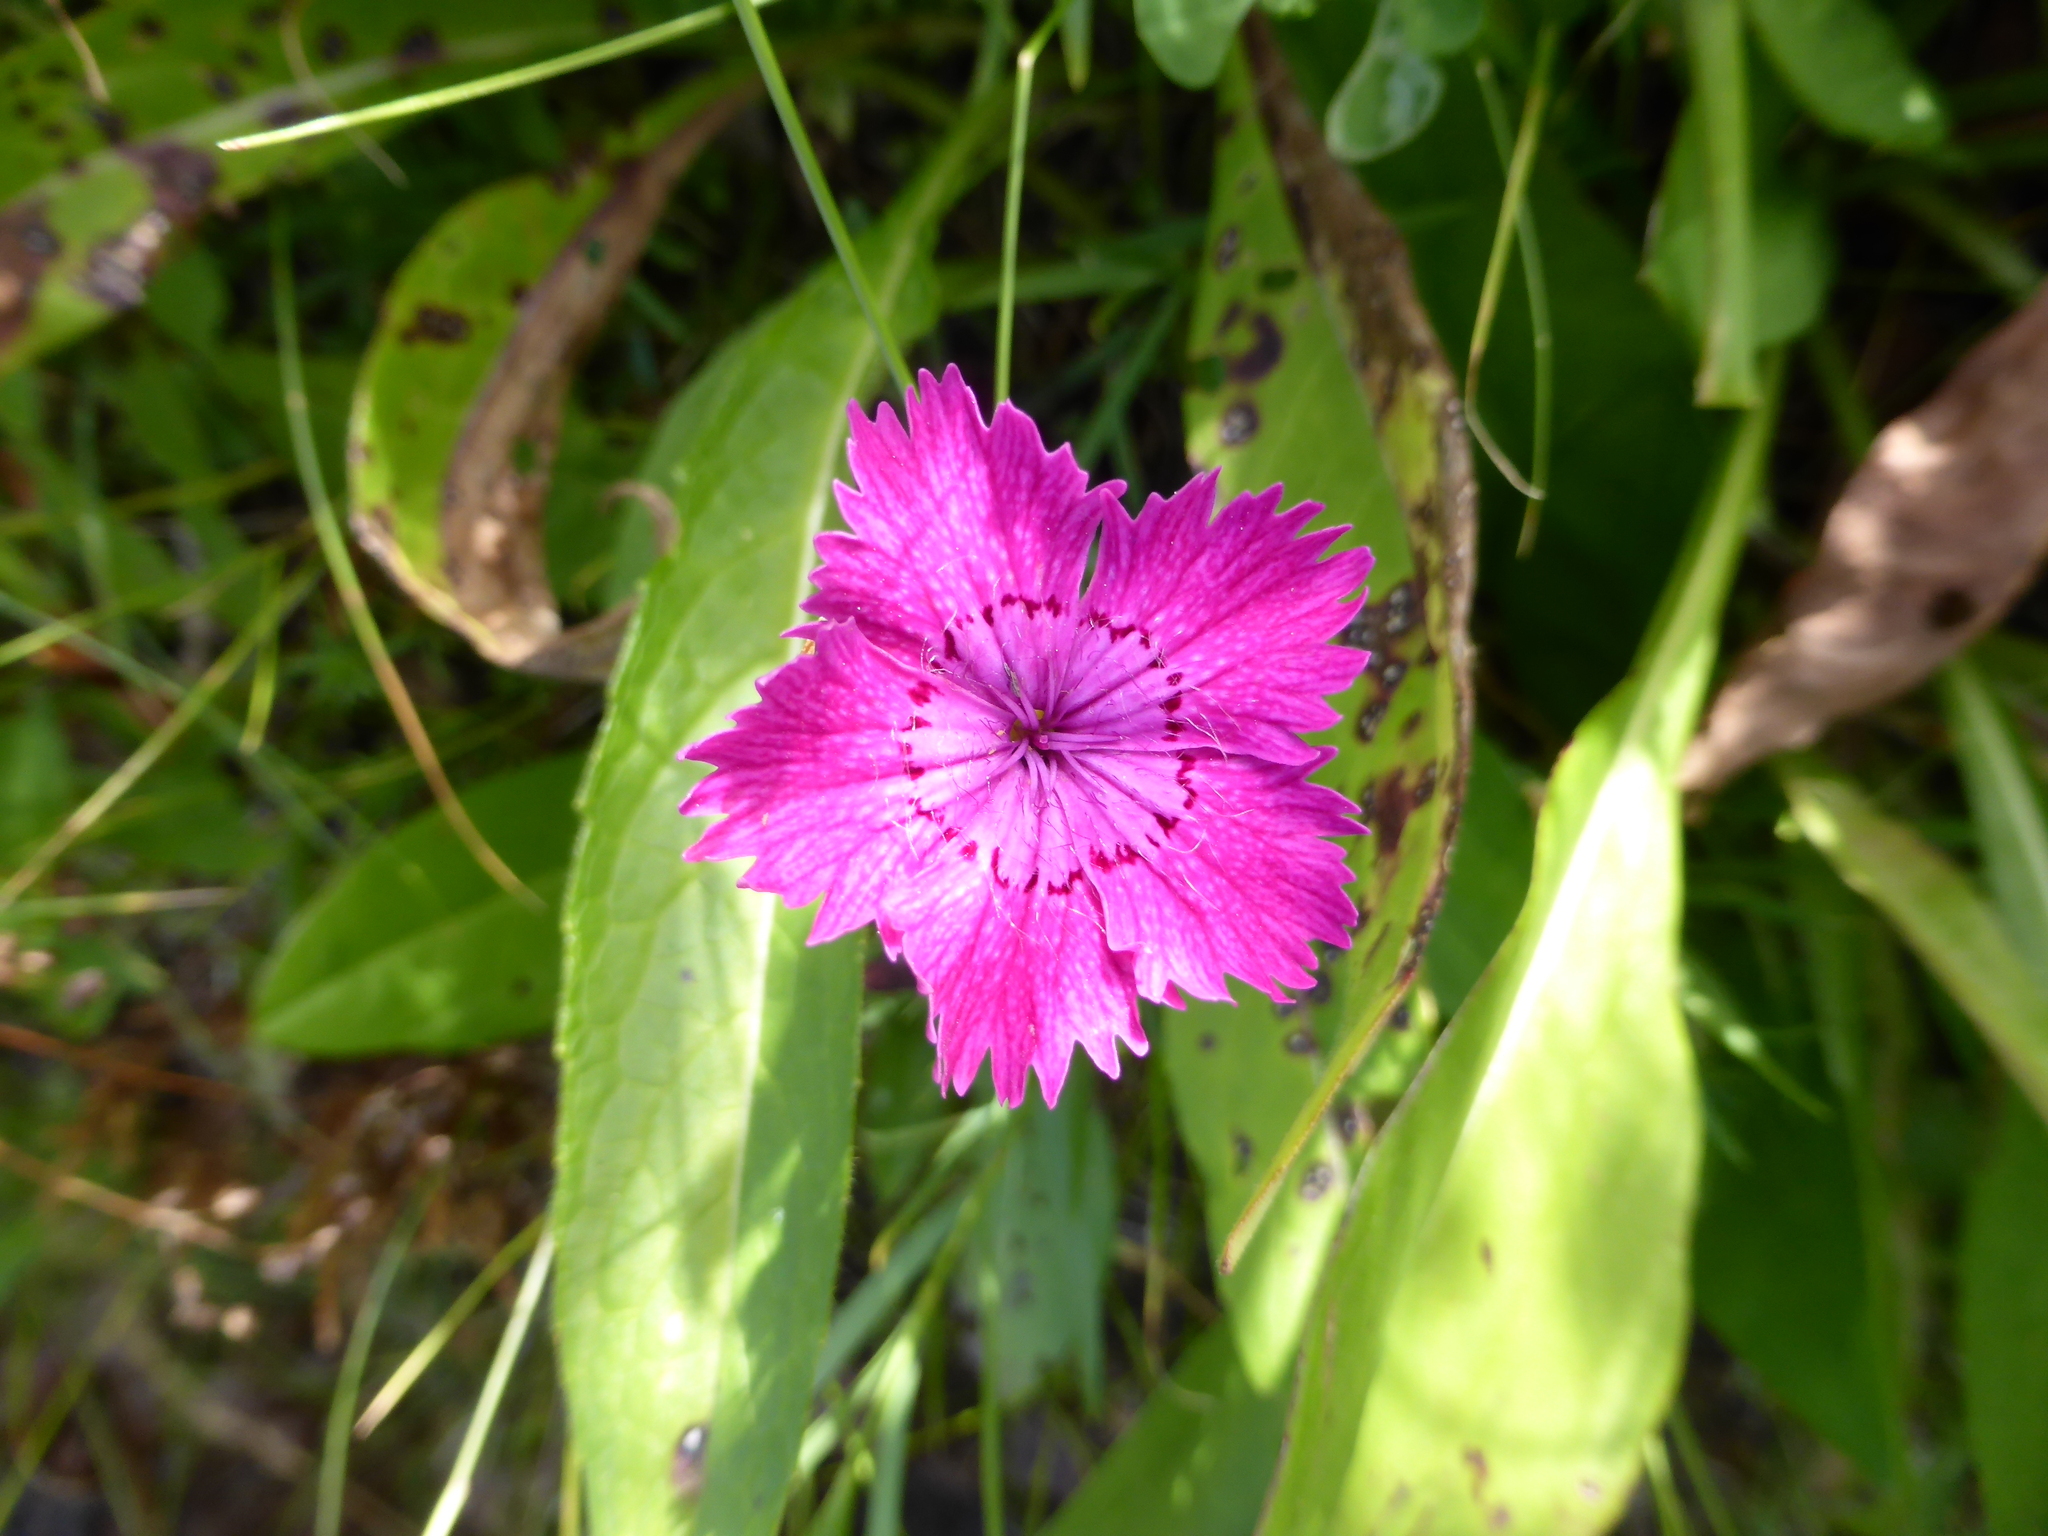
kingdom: Plantae
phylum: Tracheophyta
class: Magnoliopsida
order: Caryophyllales
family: Caryophyllaceae
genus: Dianthus
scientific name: Dianthus seguieri
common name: Ragged pink
